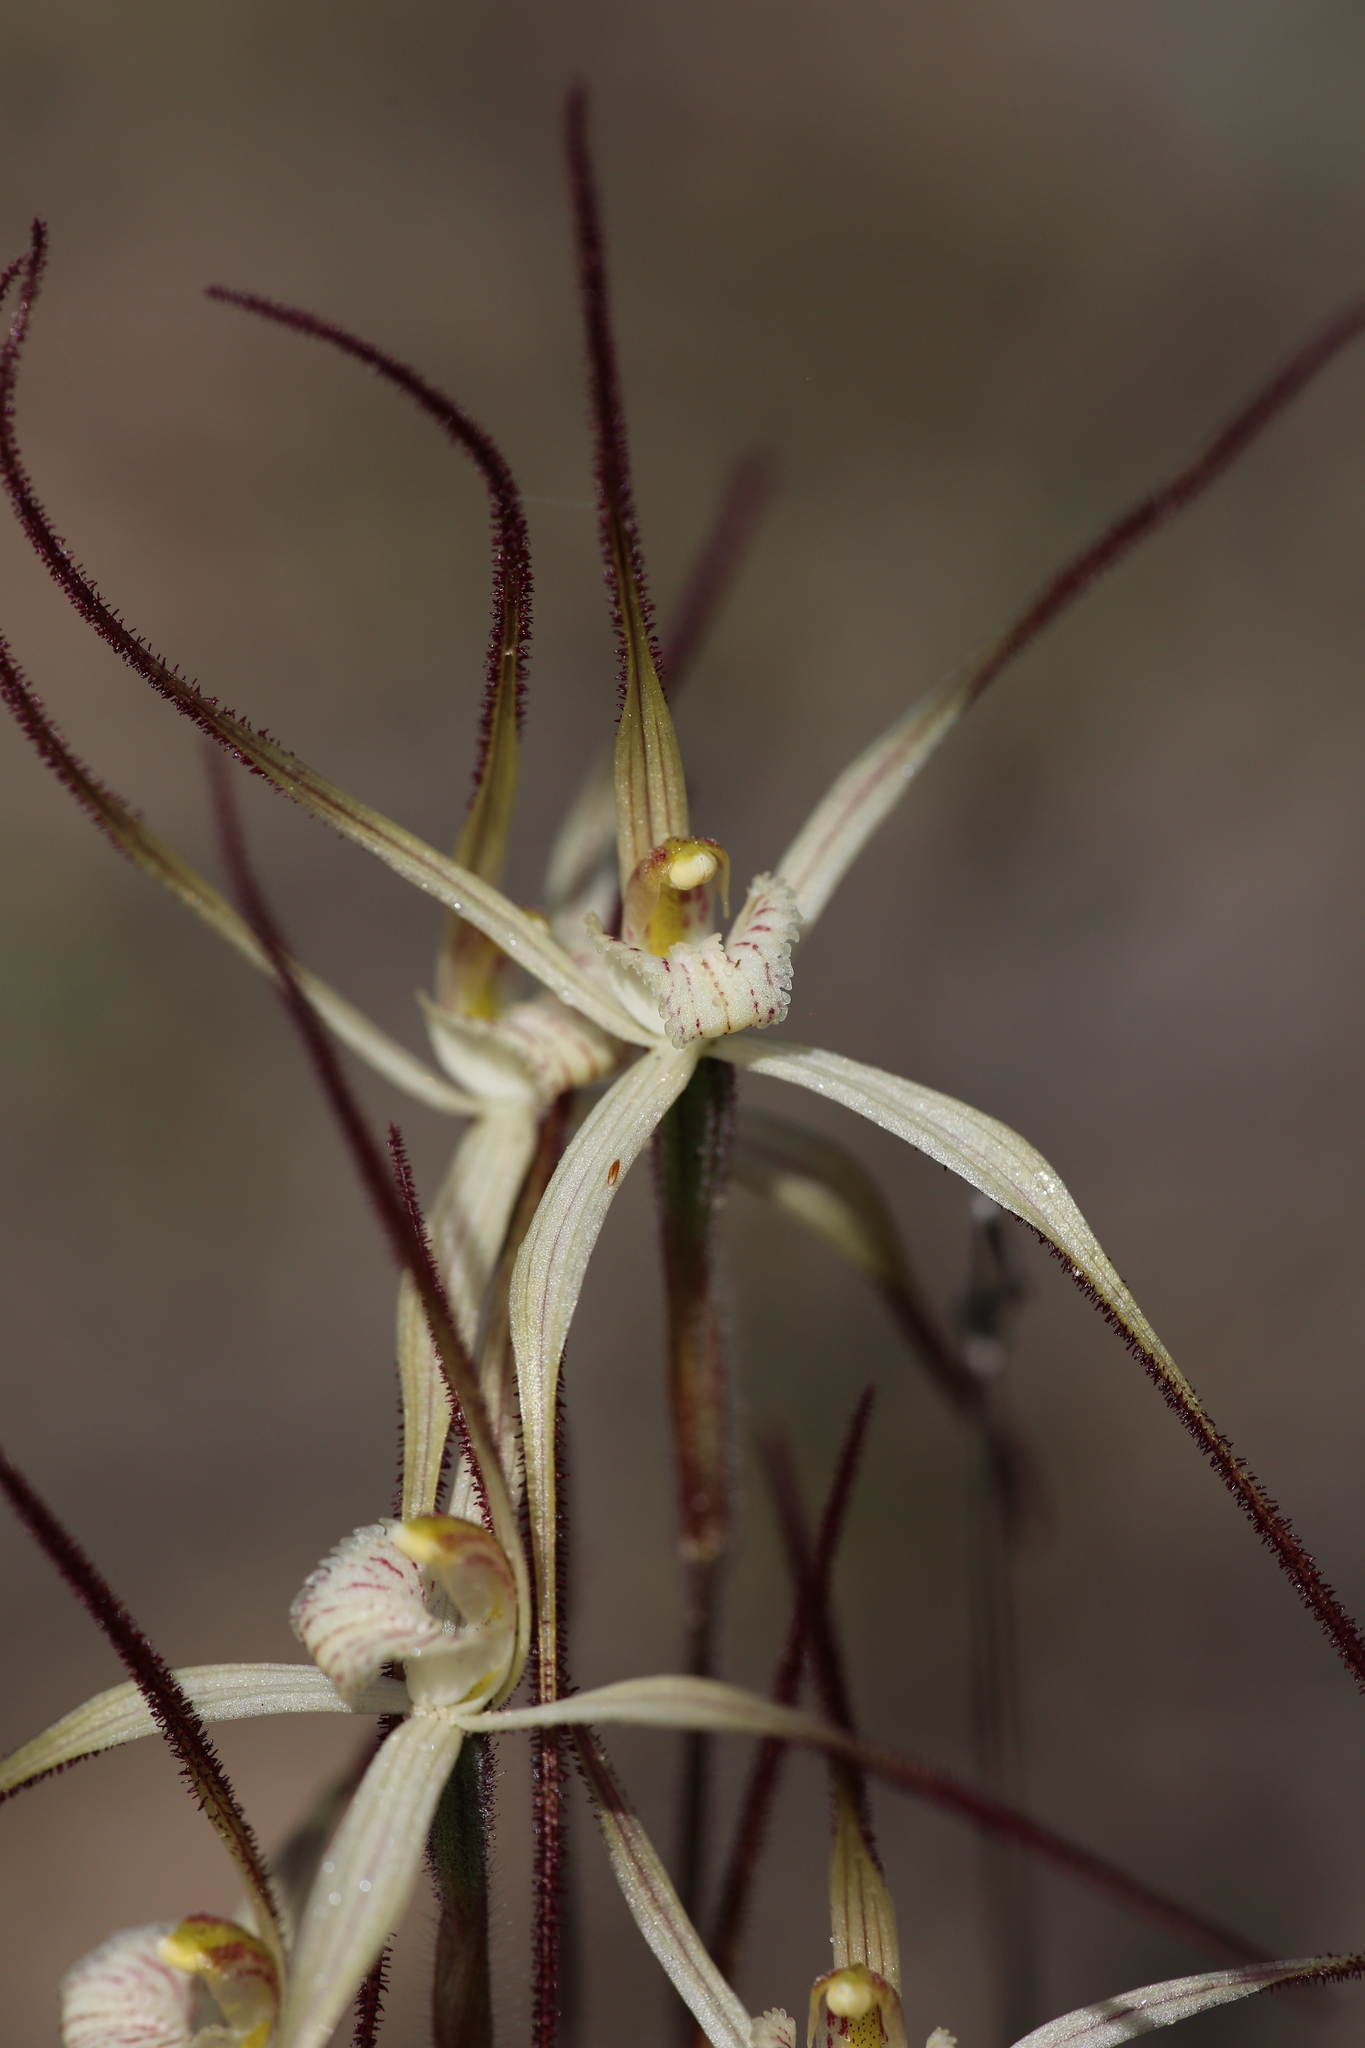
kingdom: Plantae
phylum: Tracheophyta
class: Liliopsida
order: Asparagales
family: Orchidaceae
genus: Caladenia
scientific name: Caladenia horistes
